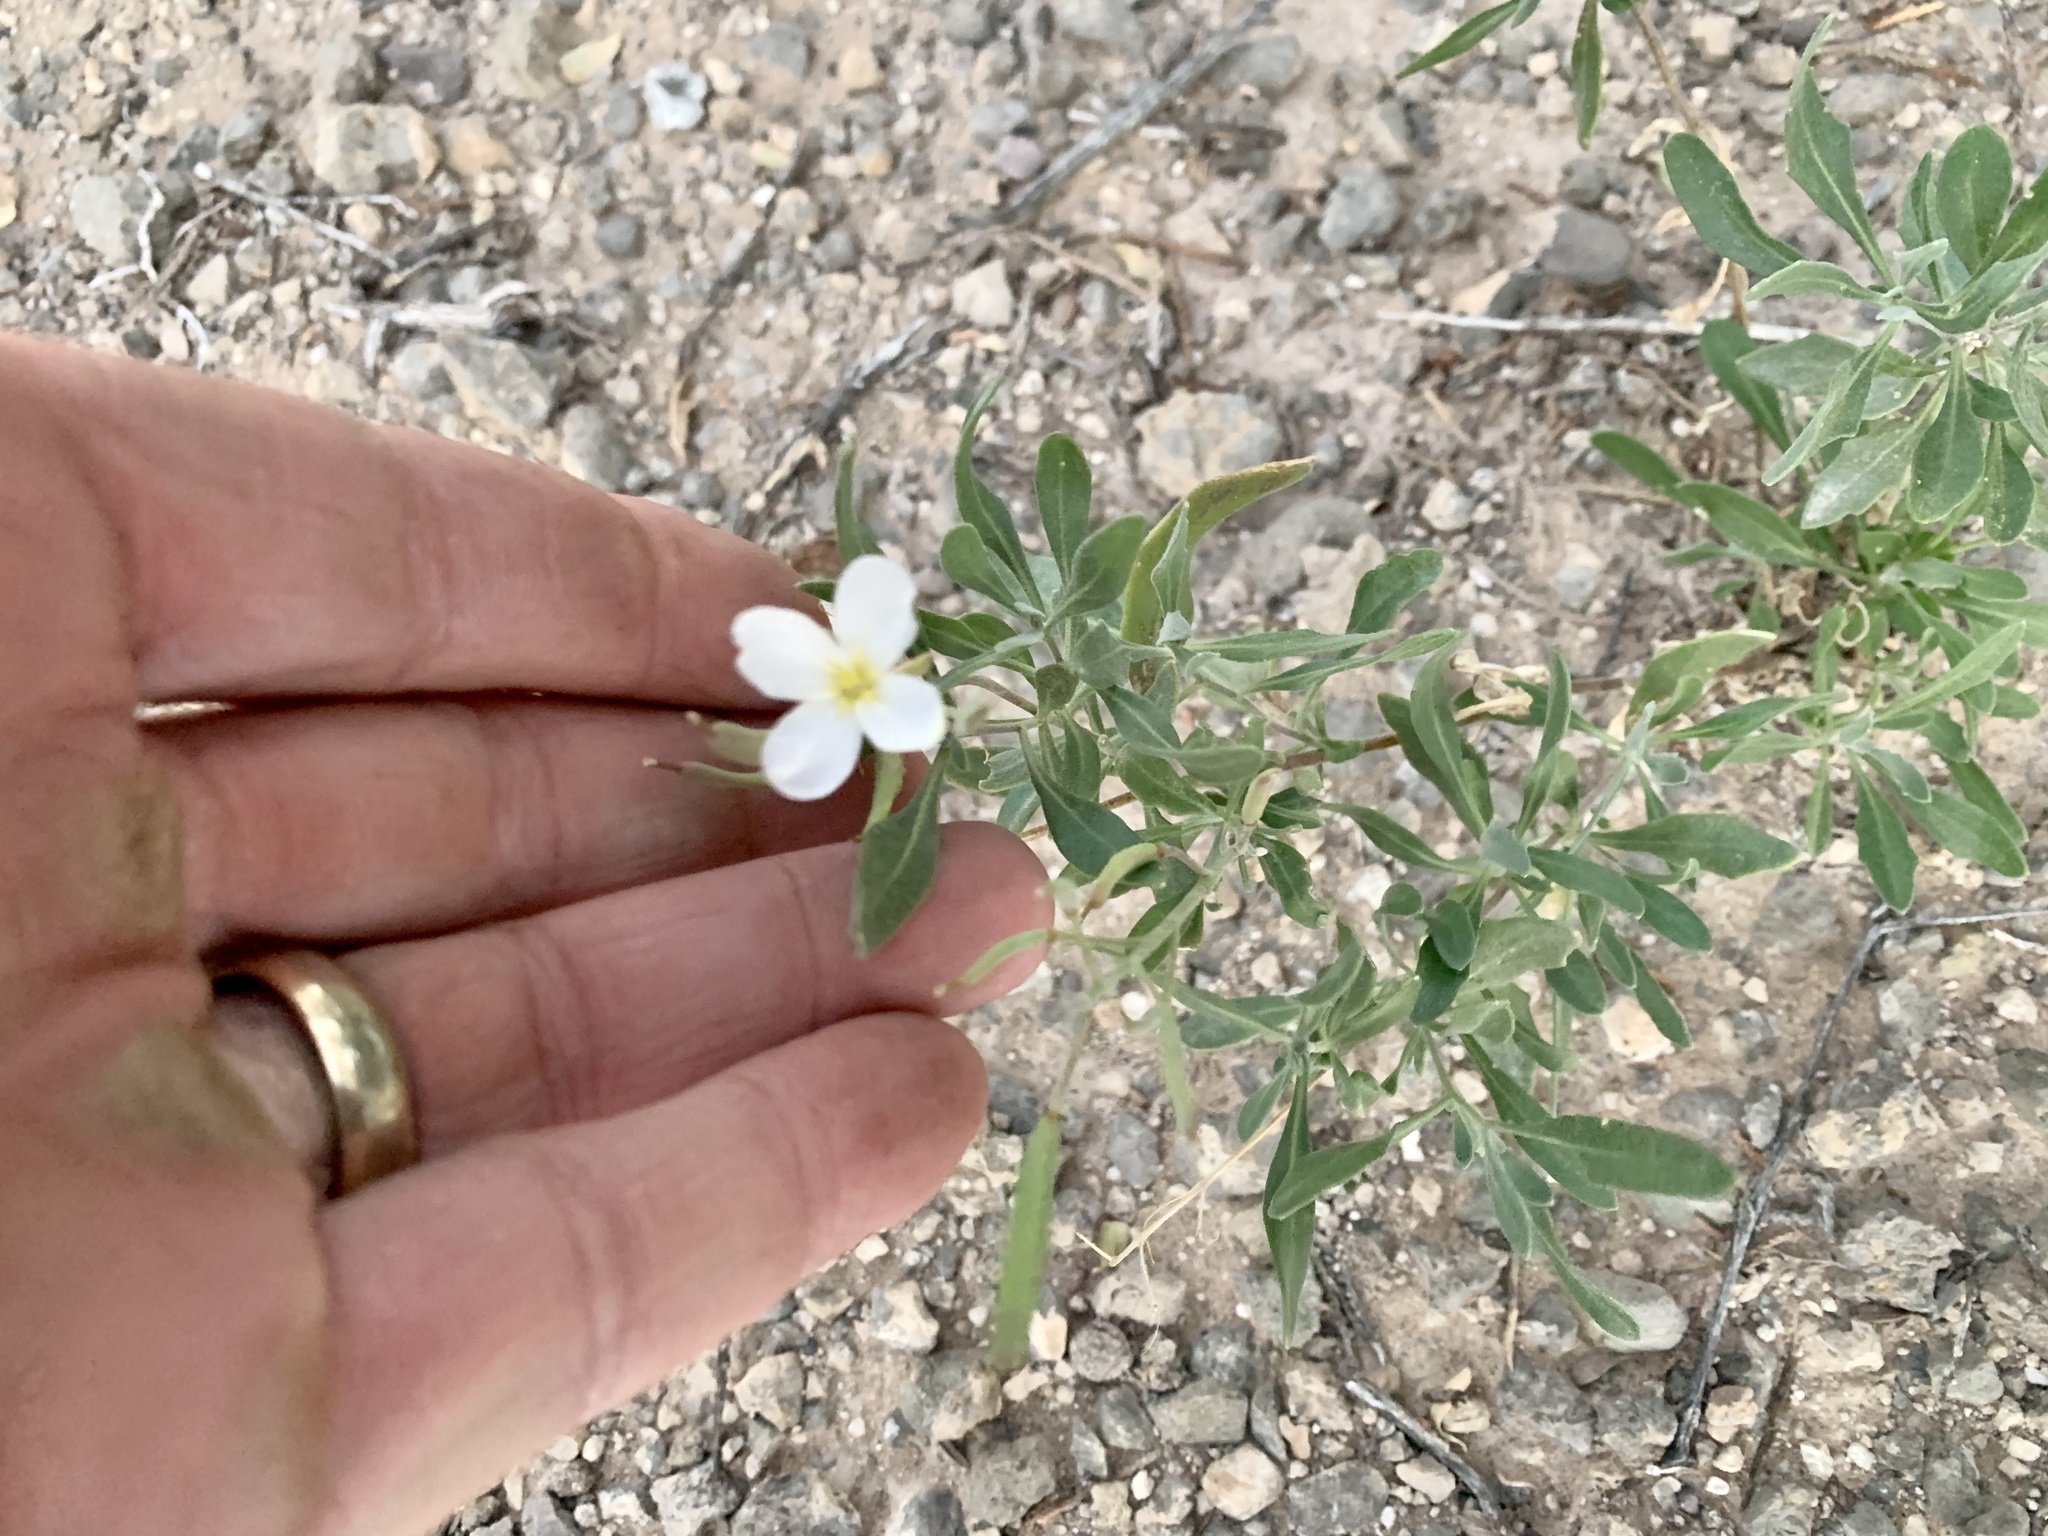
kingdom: Plantae
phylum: Tracheophyta
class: Magnoliopsida
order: Brassicales
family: Brassicaceae
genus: Nerisyrenia
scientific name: Nerisyrenia camporum
